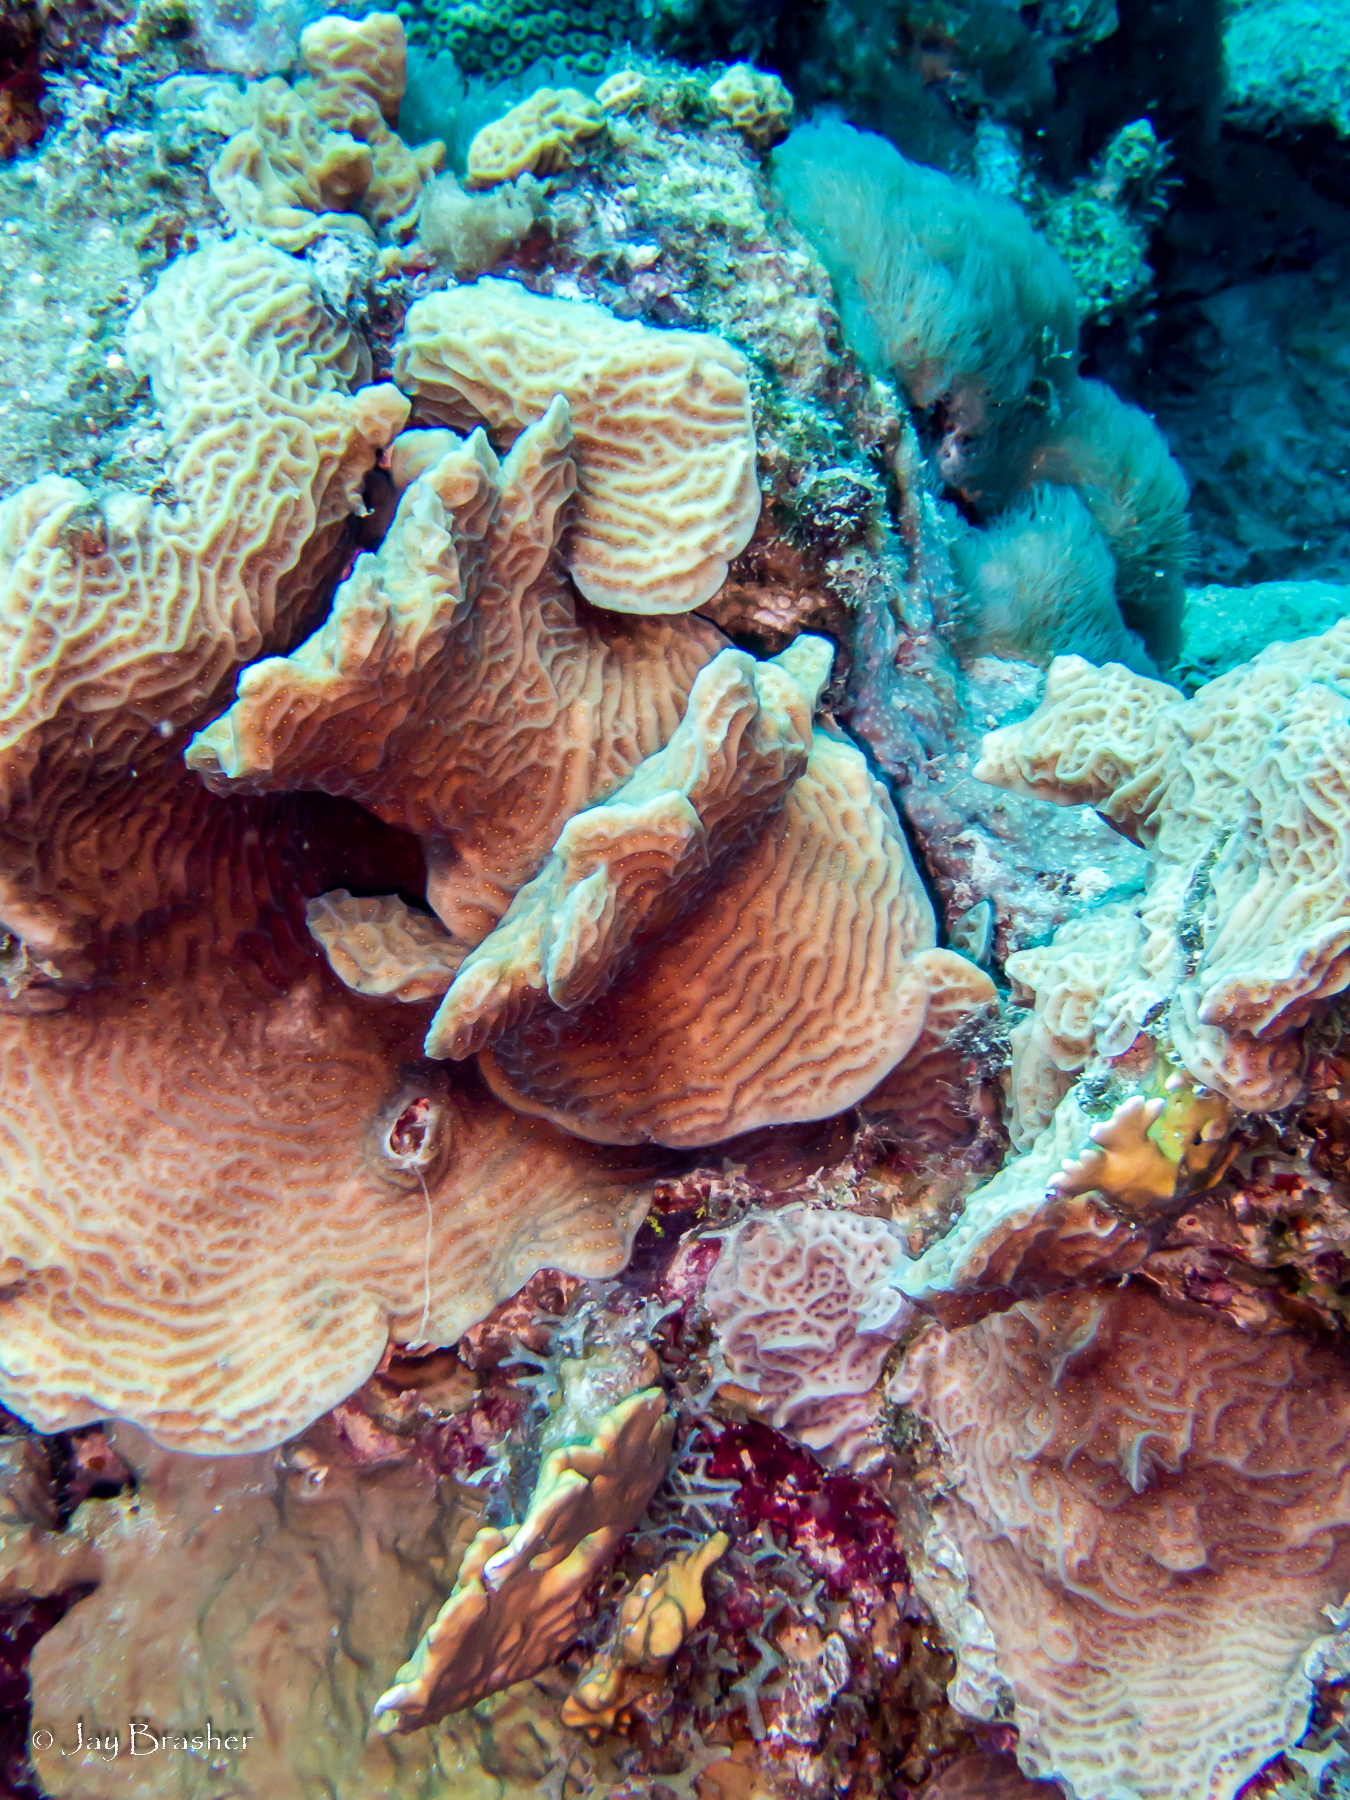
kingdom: Animalia
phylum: Cnidaria
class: Anthozoa
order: Scleralcyonacea
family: Erythropodiidae
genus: Erythropodium
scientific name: Erythropodium caribaeorum
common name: Encrusting gorgonian
